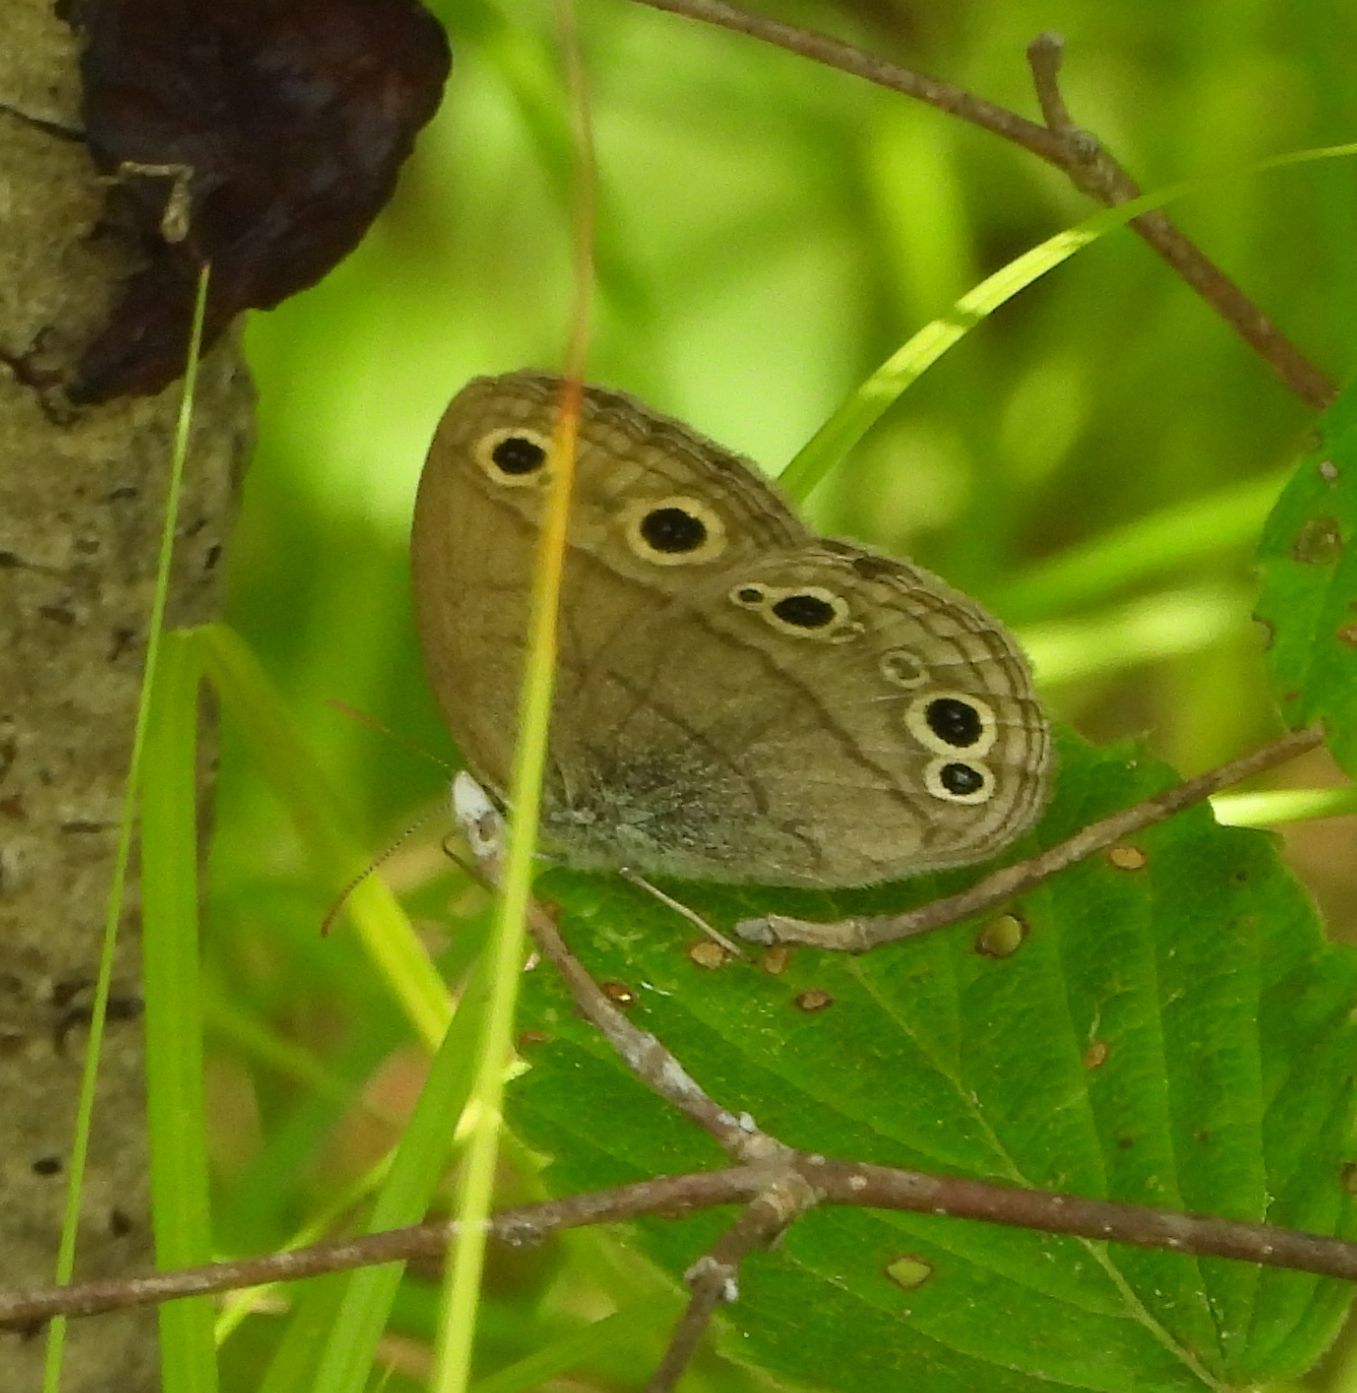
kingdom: Animalia
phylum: Arthropoda
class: Insecta
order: Lepidoptera
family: Nymphalidae
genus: Euptychia
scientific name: Euptychia cymela
